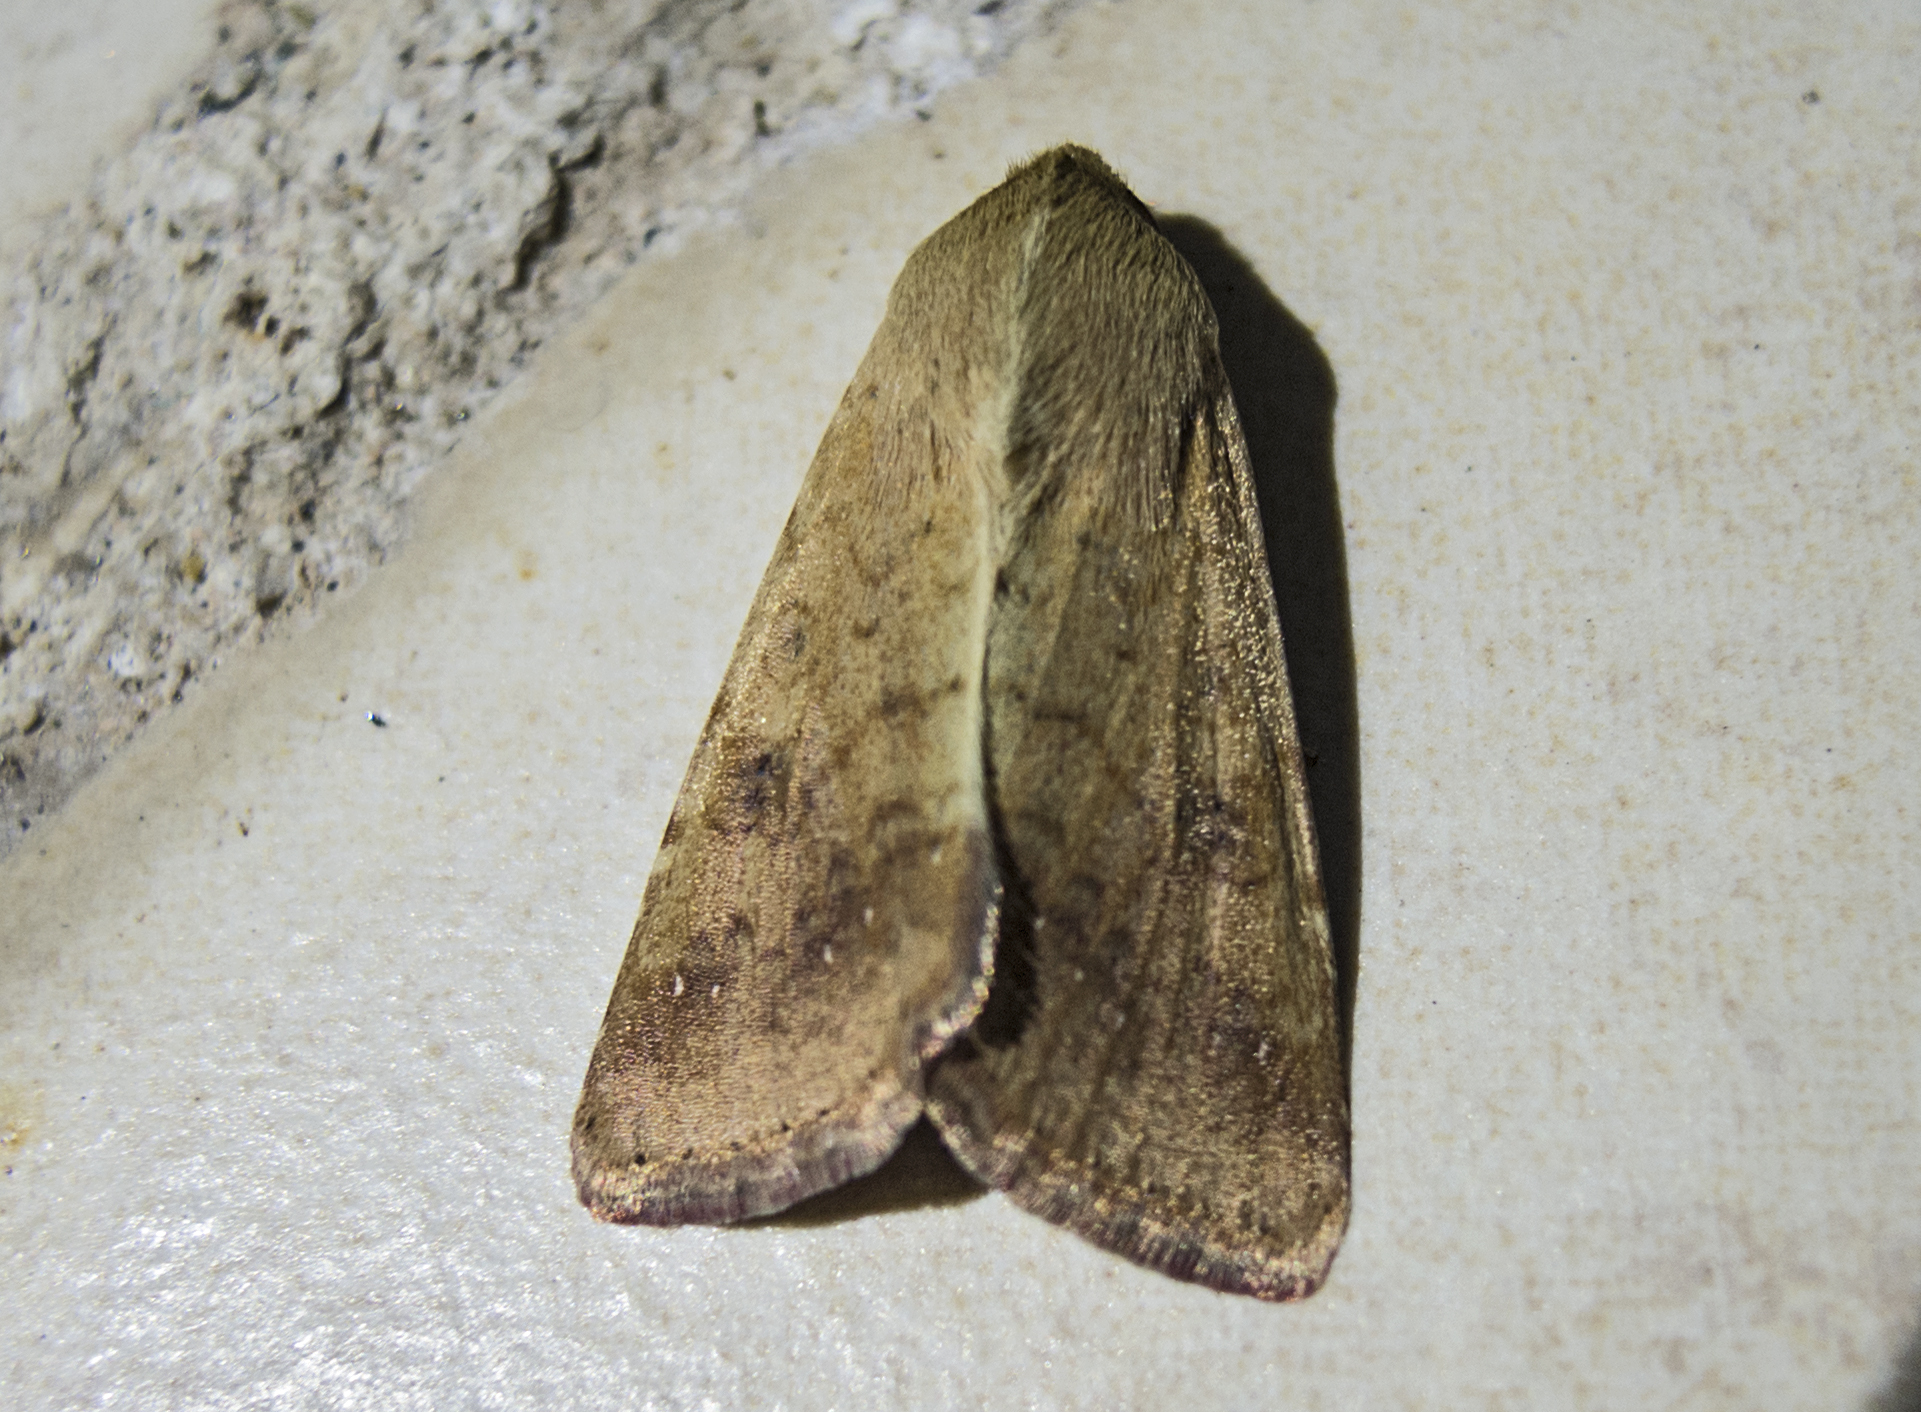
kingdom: Animalia
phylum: Arthropoda
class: Insecta
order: Lepidoptera
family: Noctuidae
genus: Helicoverpa
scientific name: Helicoverpa armigera
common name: Cotton bollworm
